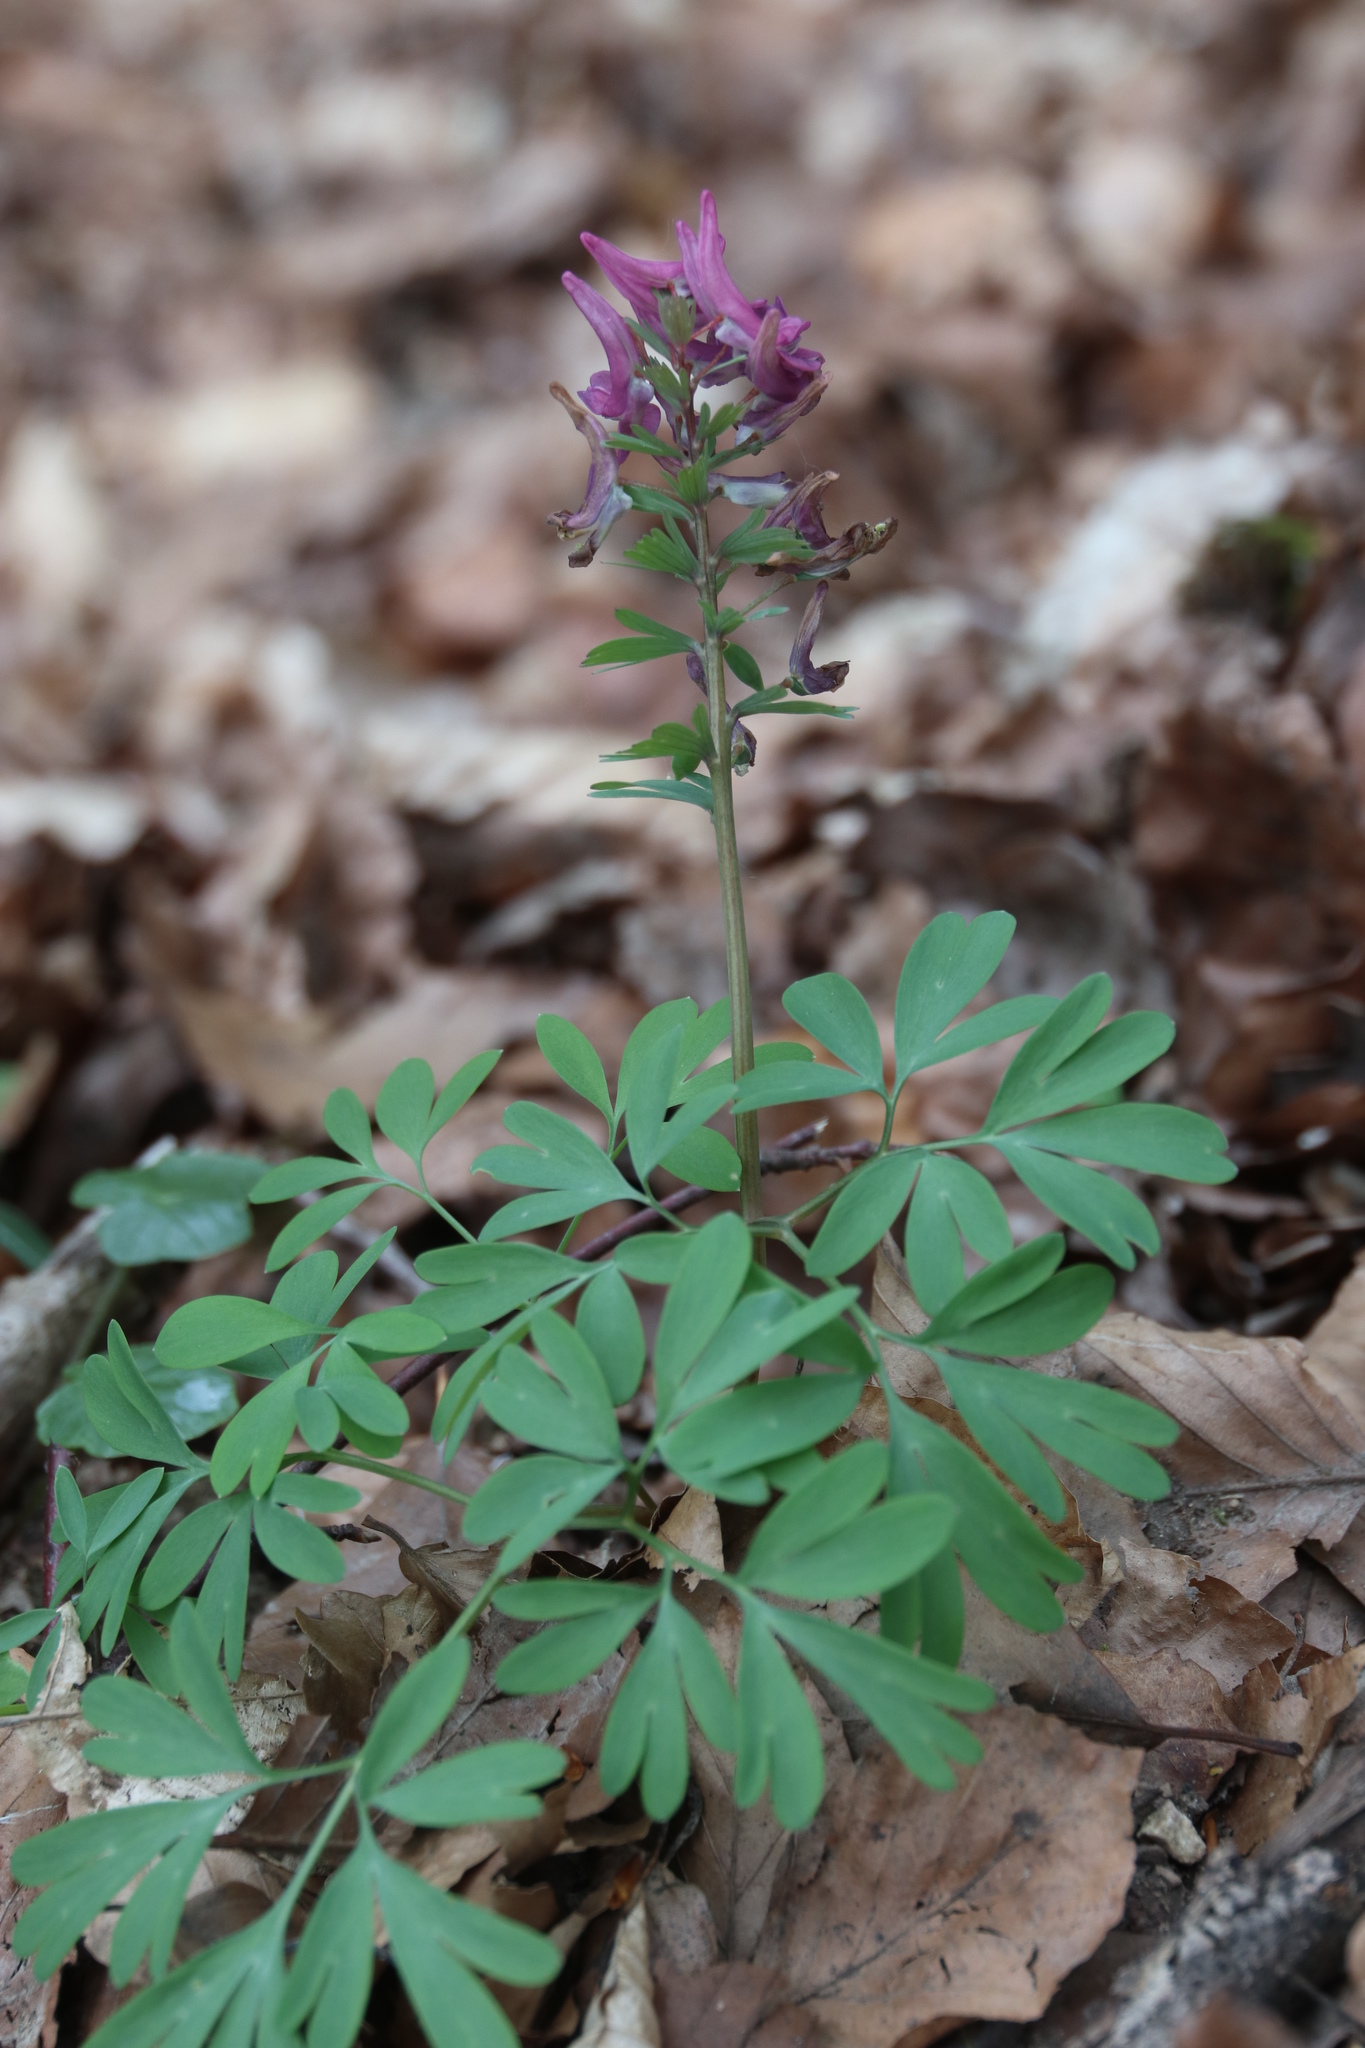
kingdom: Plantae
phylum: Tracheophyta
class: Magnoliopsida
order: Ranunculales
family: Papaveraceae
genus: Corydalis
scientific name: Corydalis solida
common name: Bird-in-a-bush
